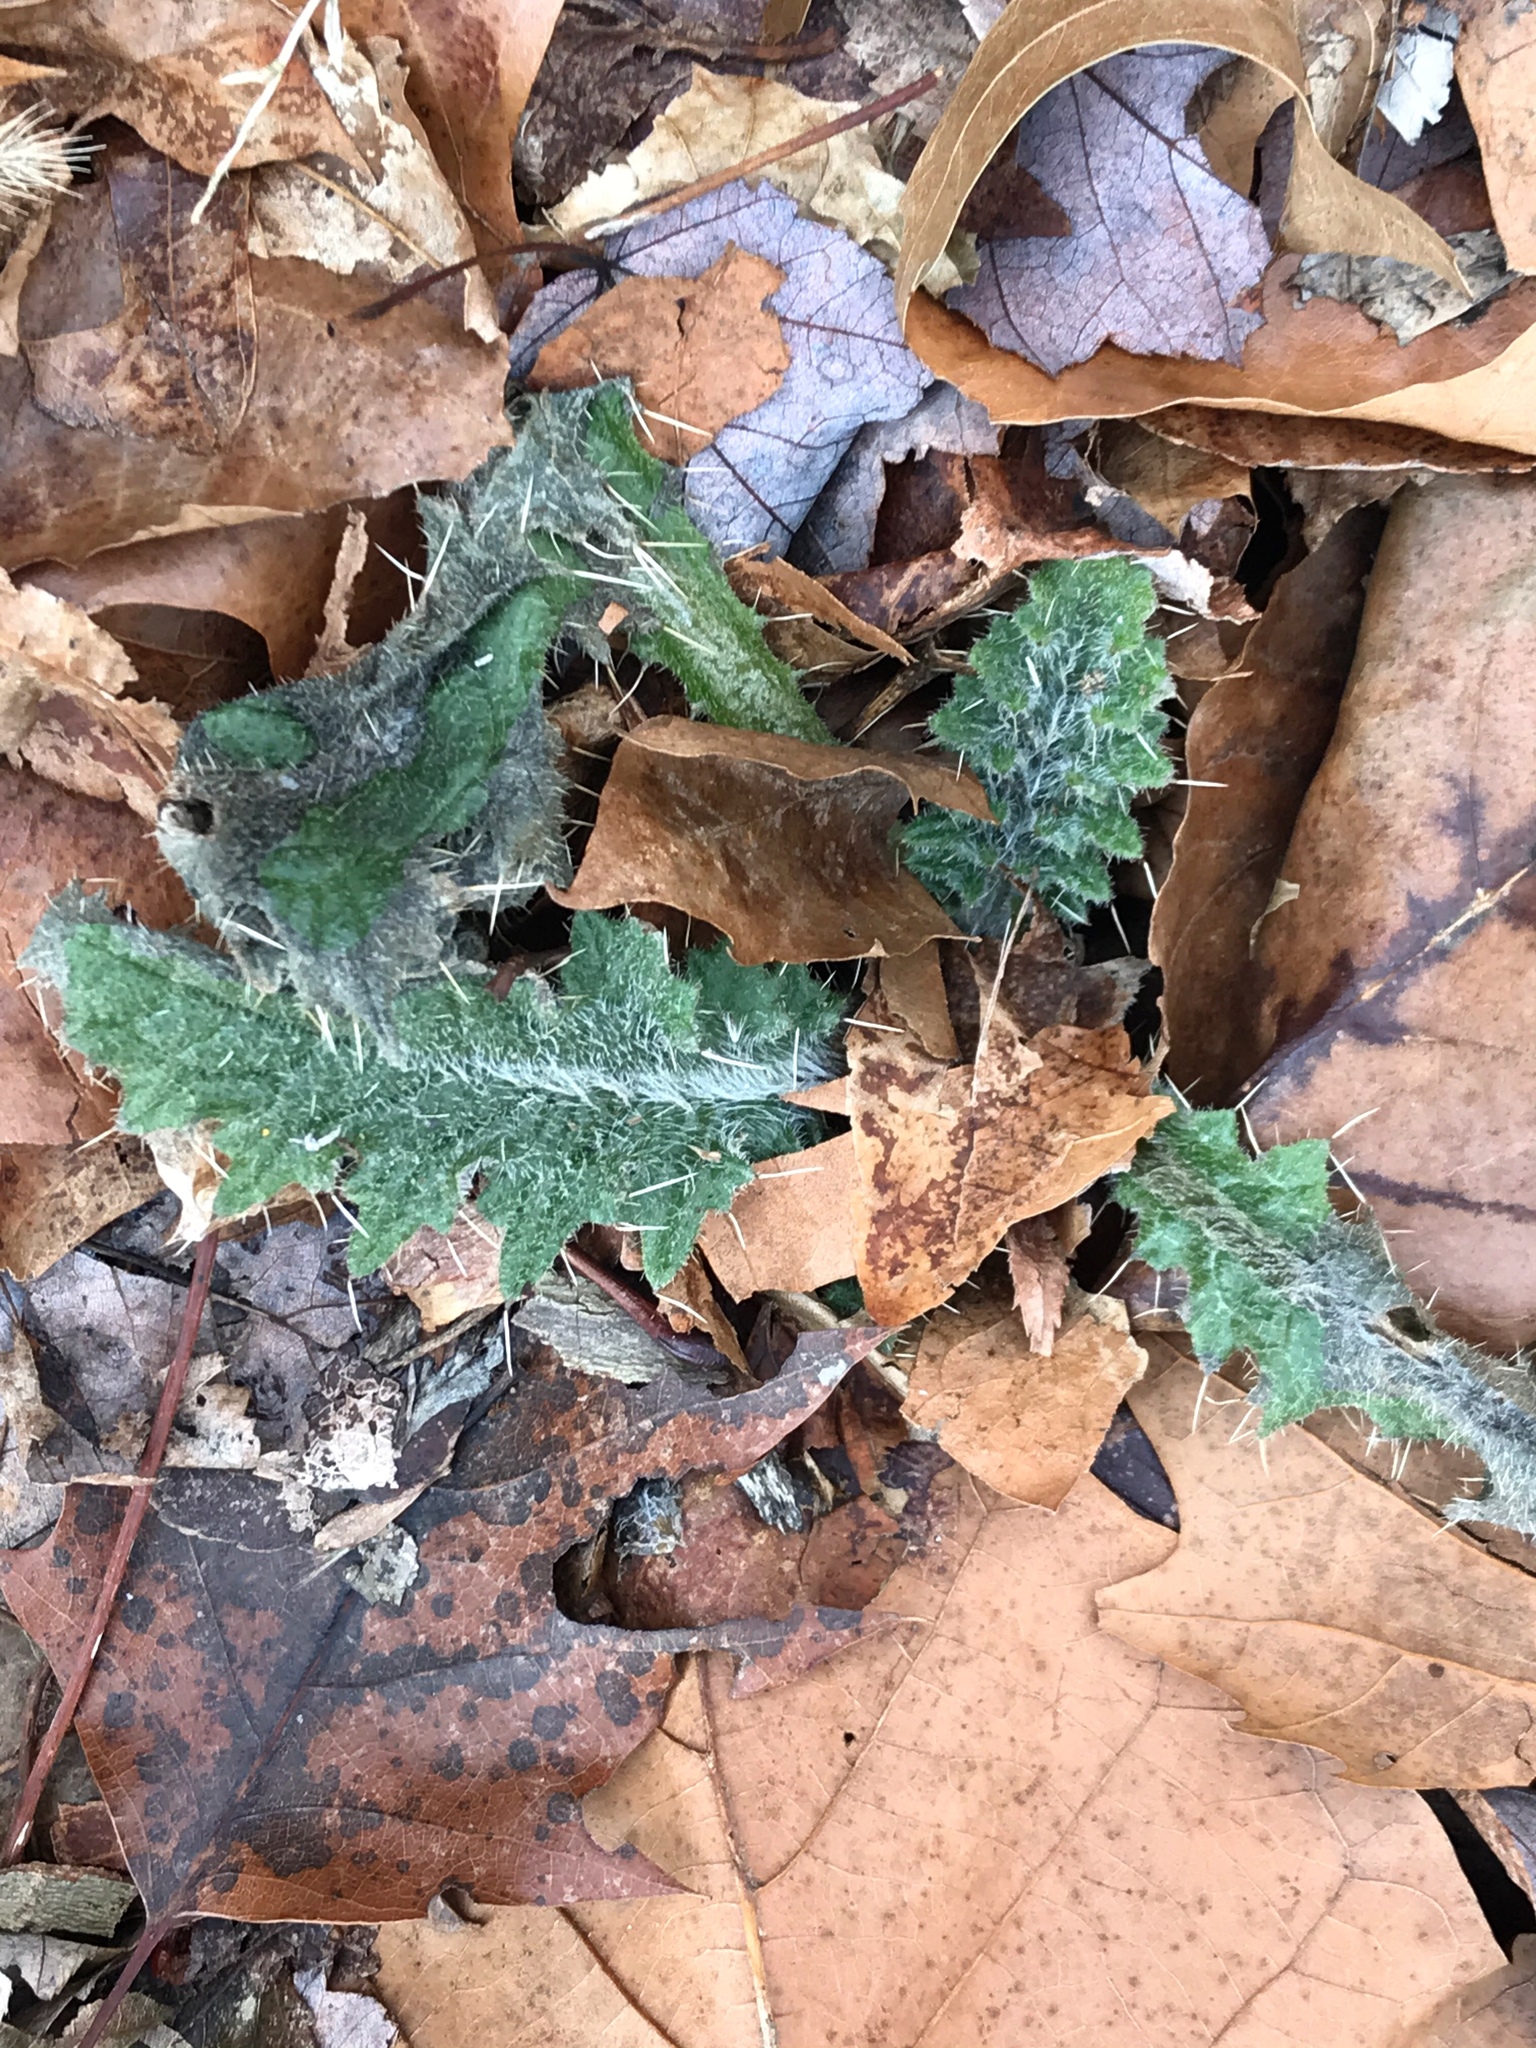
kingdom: Plantae
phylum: Tracheophyta
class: Magnoliopsida
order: Asterales
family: Asteraceae
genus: Cirsium
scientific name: Cirsium vulgare
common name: Bull thistle
